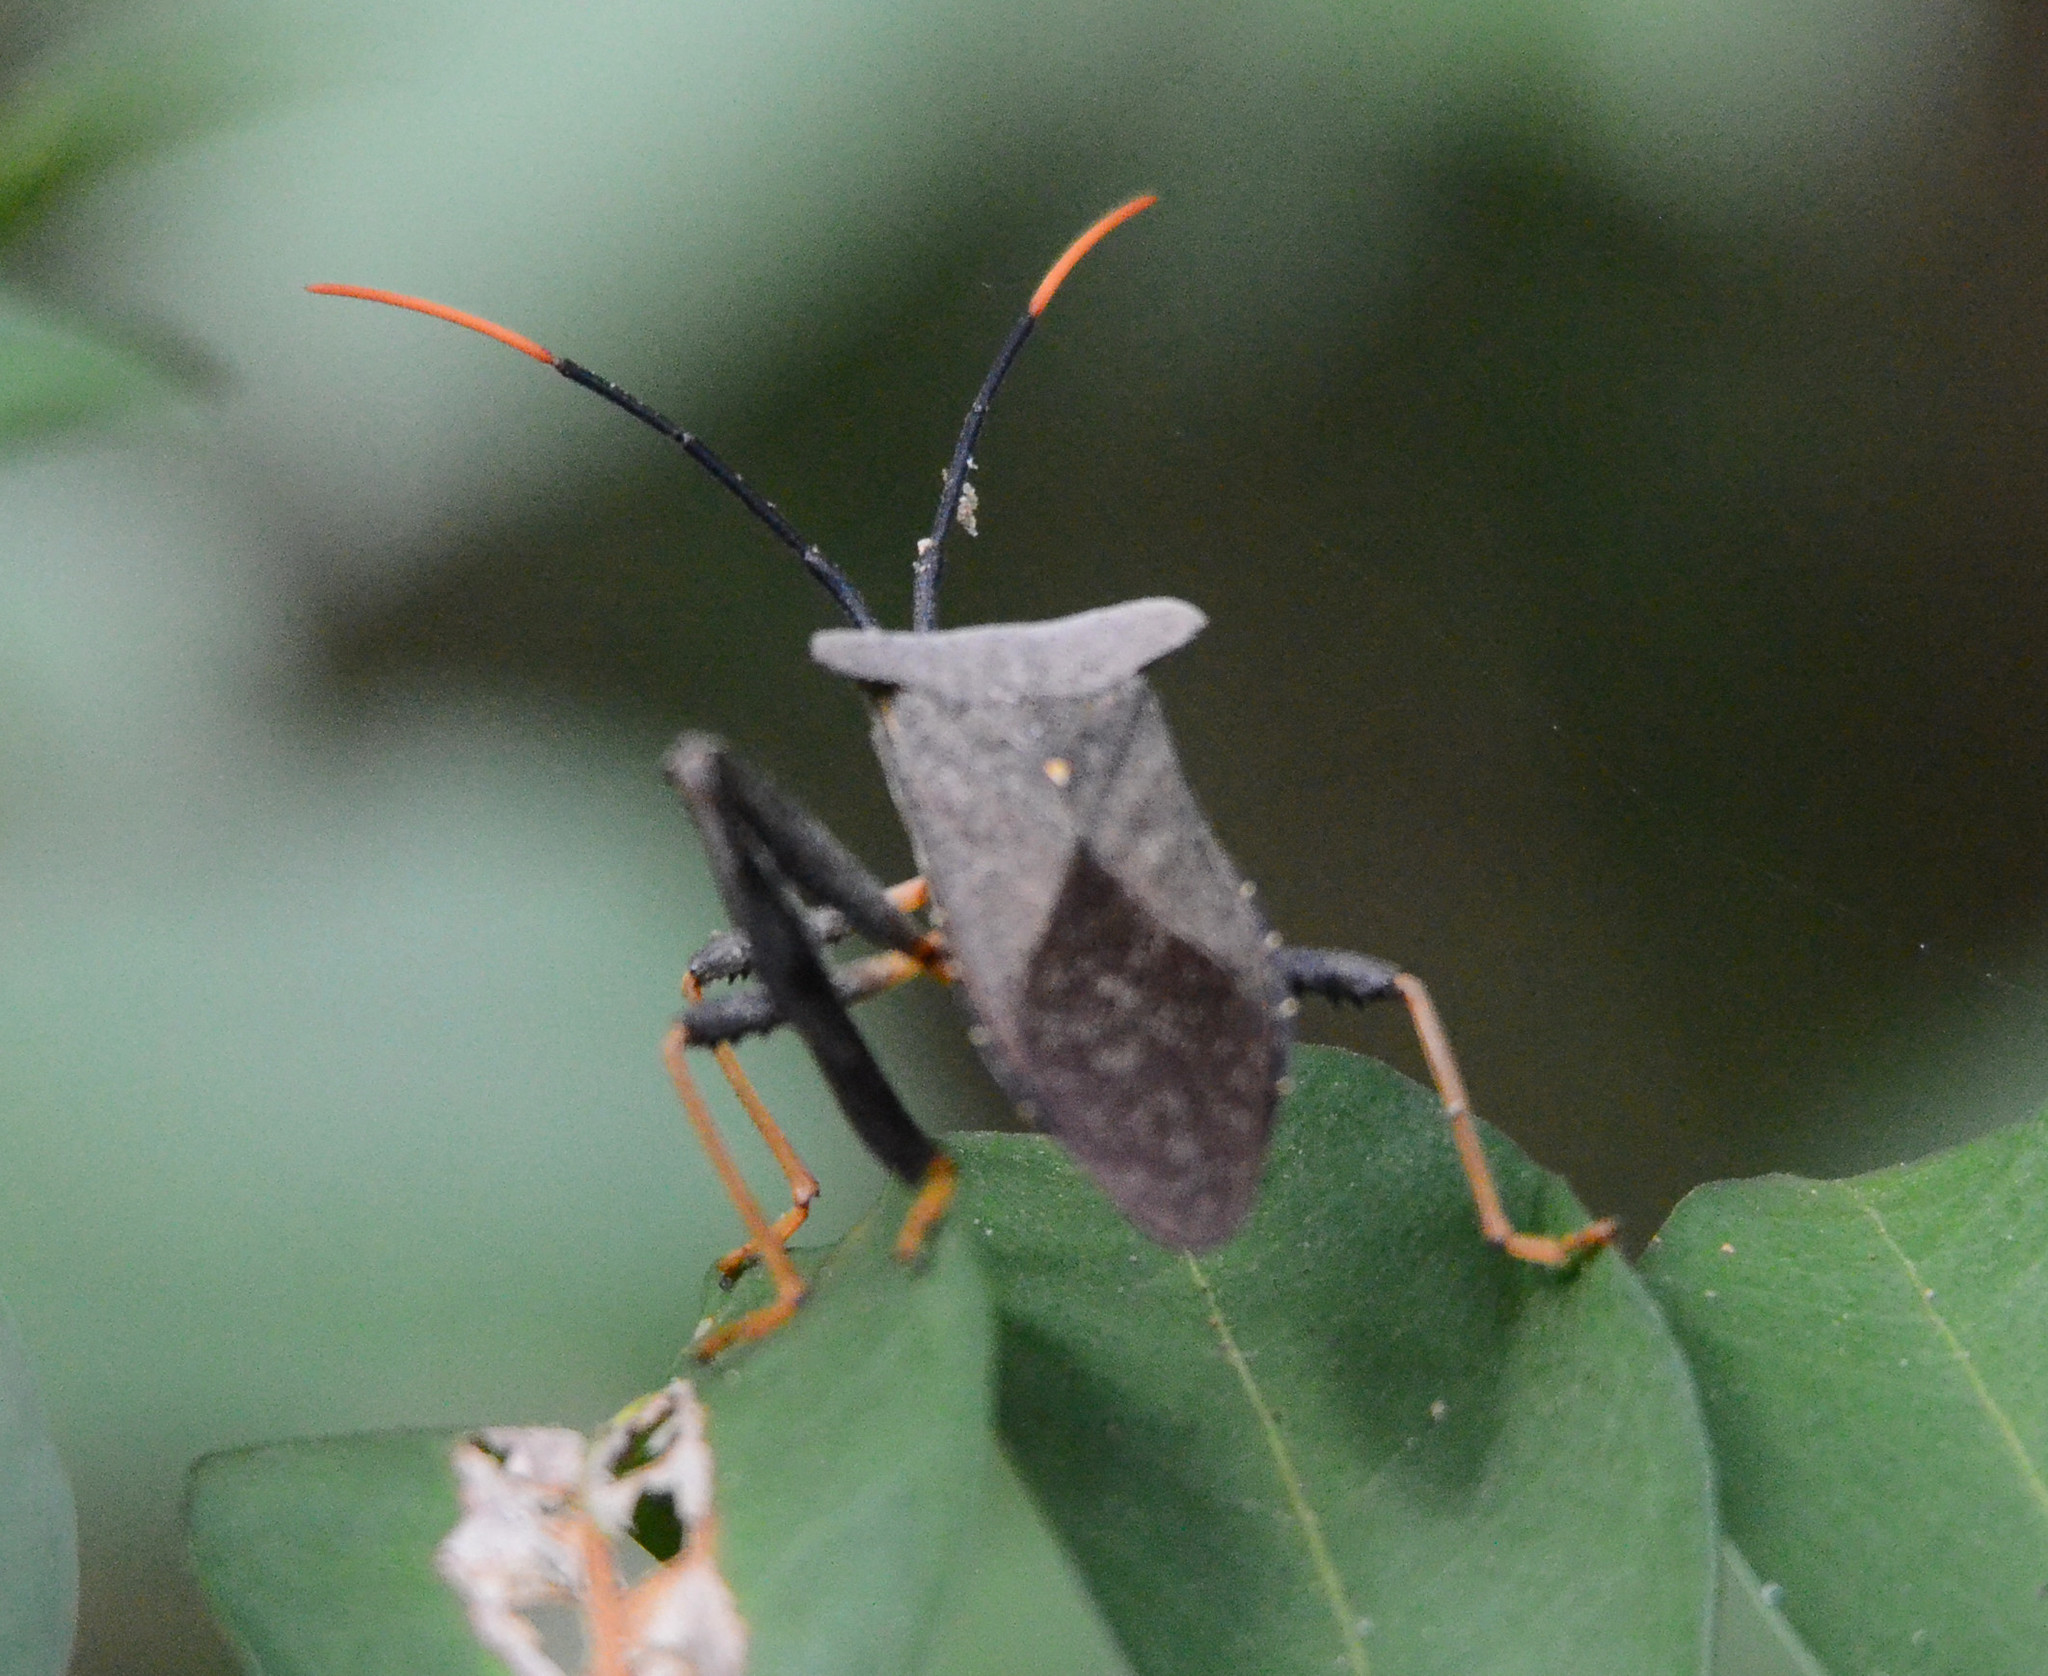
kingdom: Animalia
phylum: Arthropoda
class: Insecta
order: Hemiptera
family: Coreidae
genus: Acanthocephala
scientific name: Acanthocephala alata
